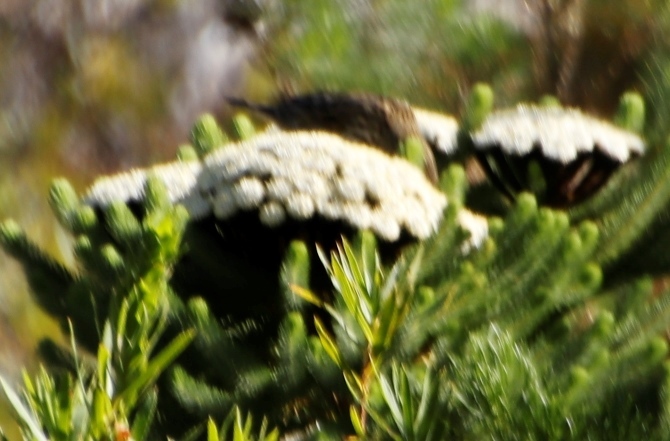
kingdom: Plantae
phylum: Tracheophyta
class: Magnoliopsida
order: Bruniales
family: Bruniaceae
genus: Berzelia
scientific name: Berzelia albiflora
